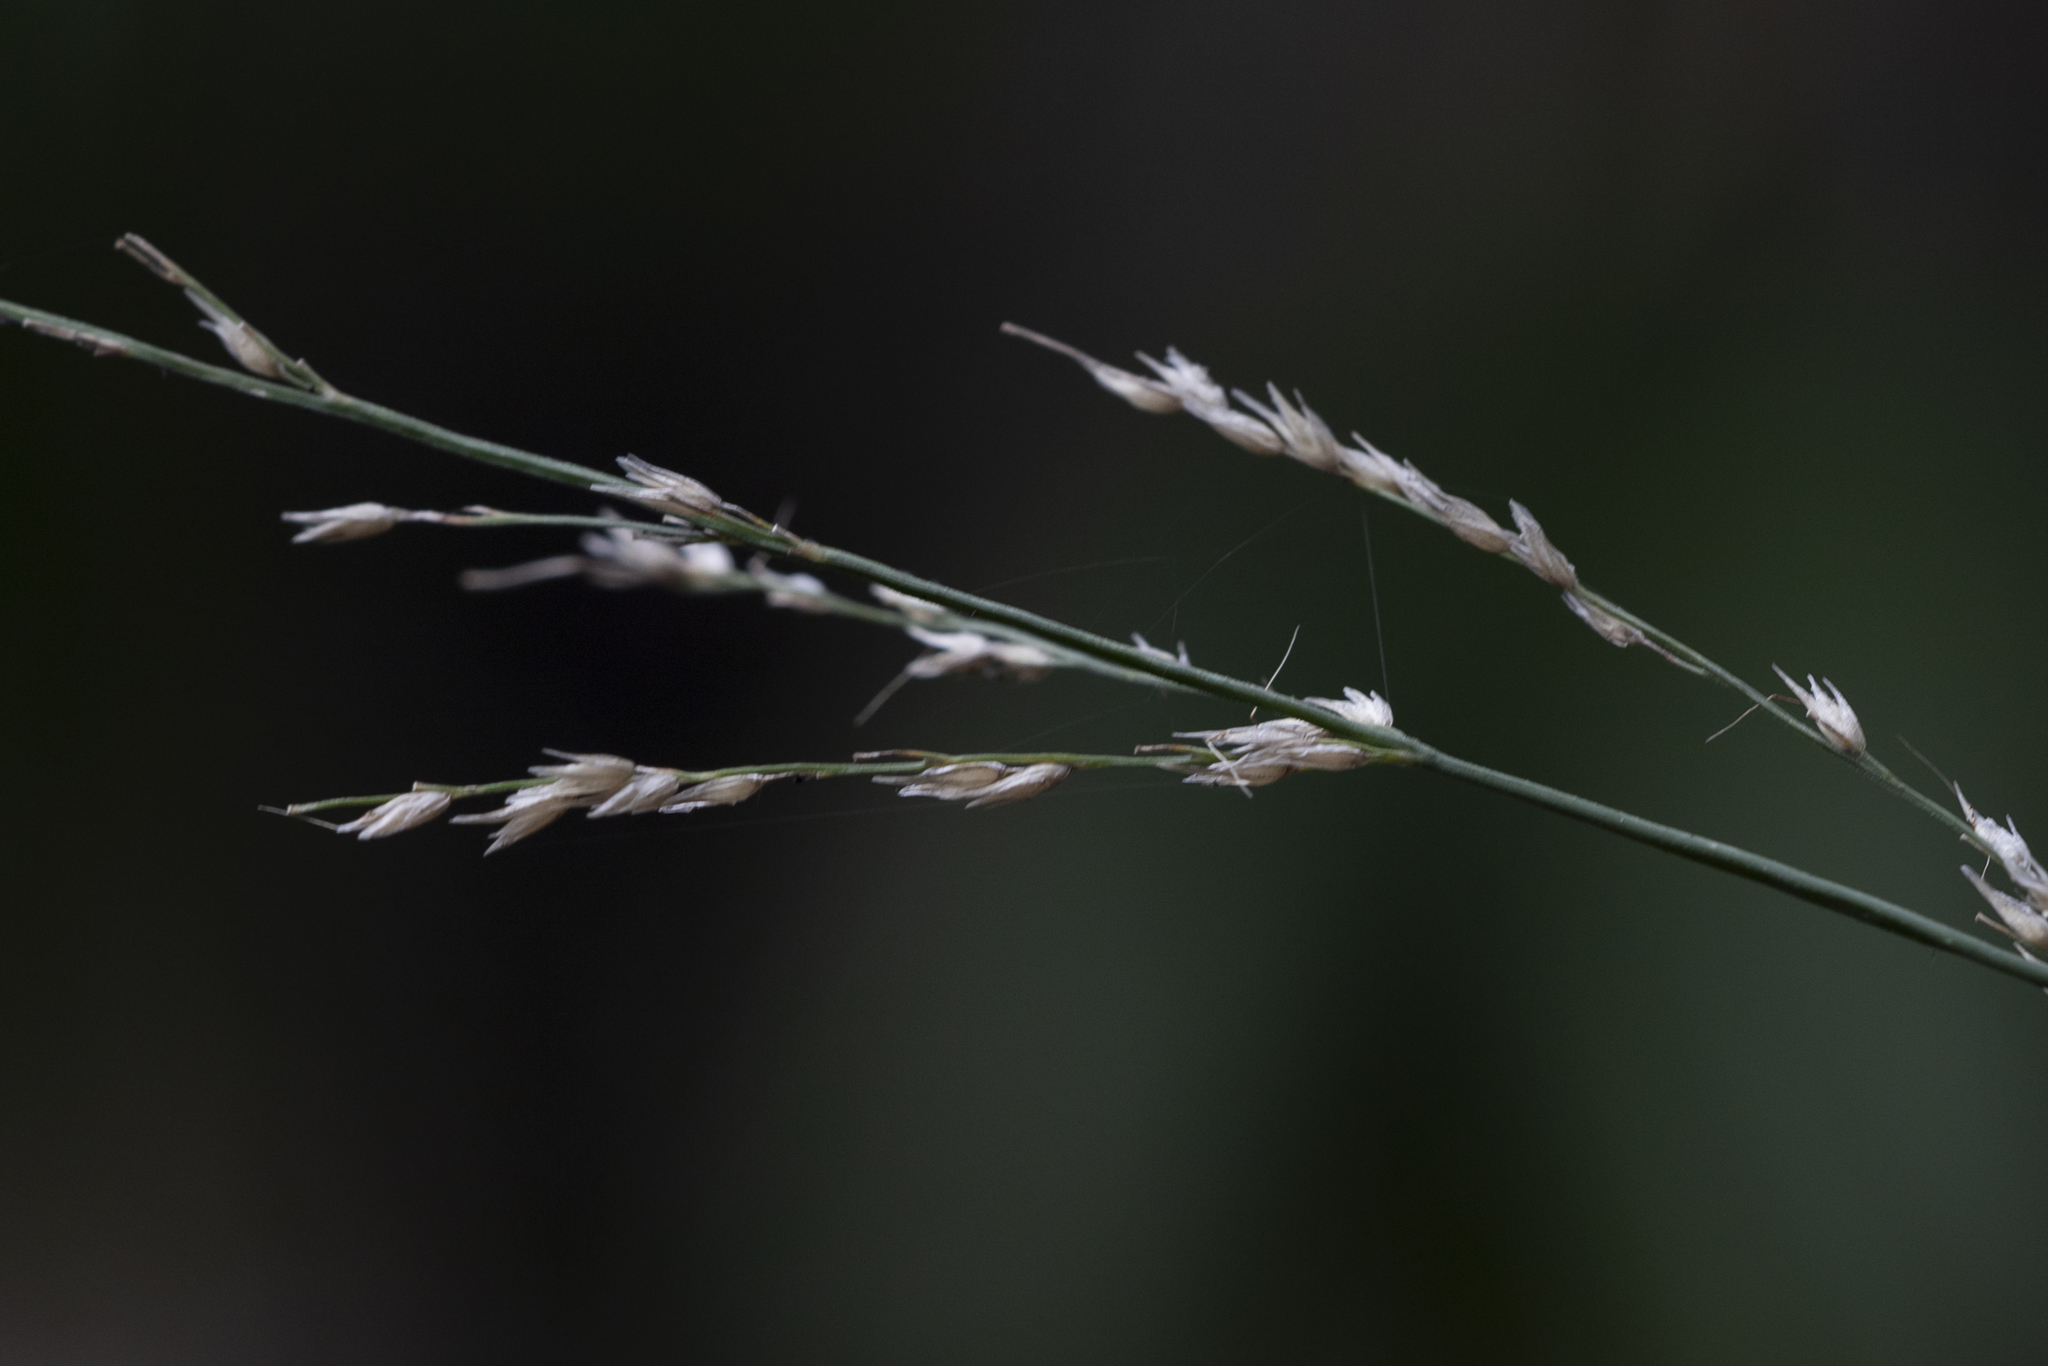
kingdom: Plantae
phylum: Tracheophyta
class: Liliopsida
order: Poales
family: Poaceae
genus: Arundinella
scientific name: Arundinella nepalensis
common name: Reed grass
